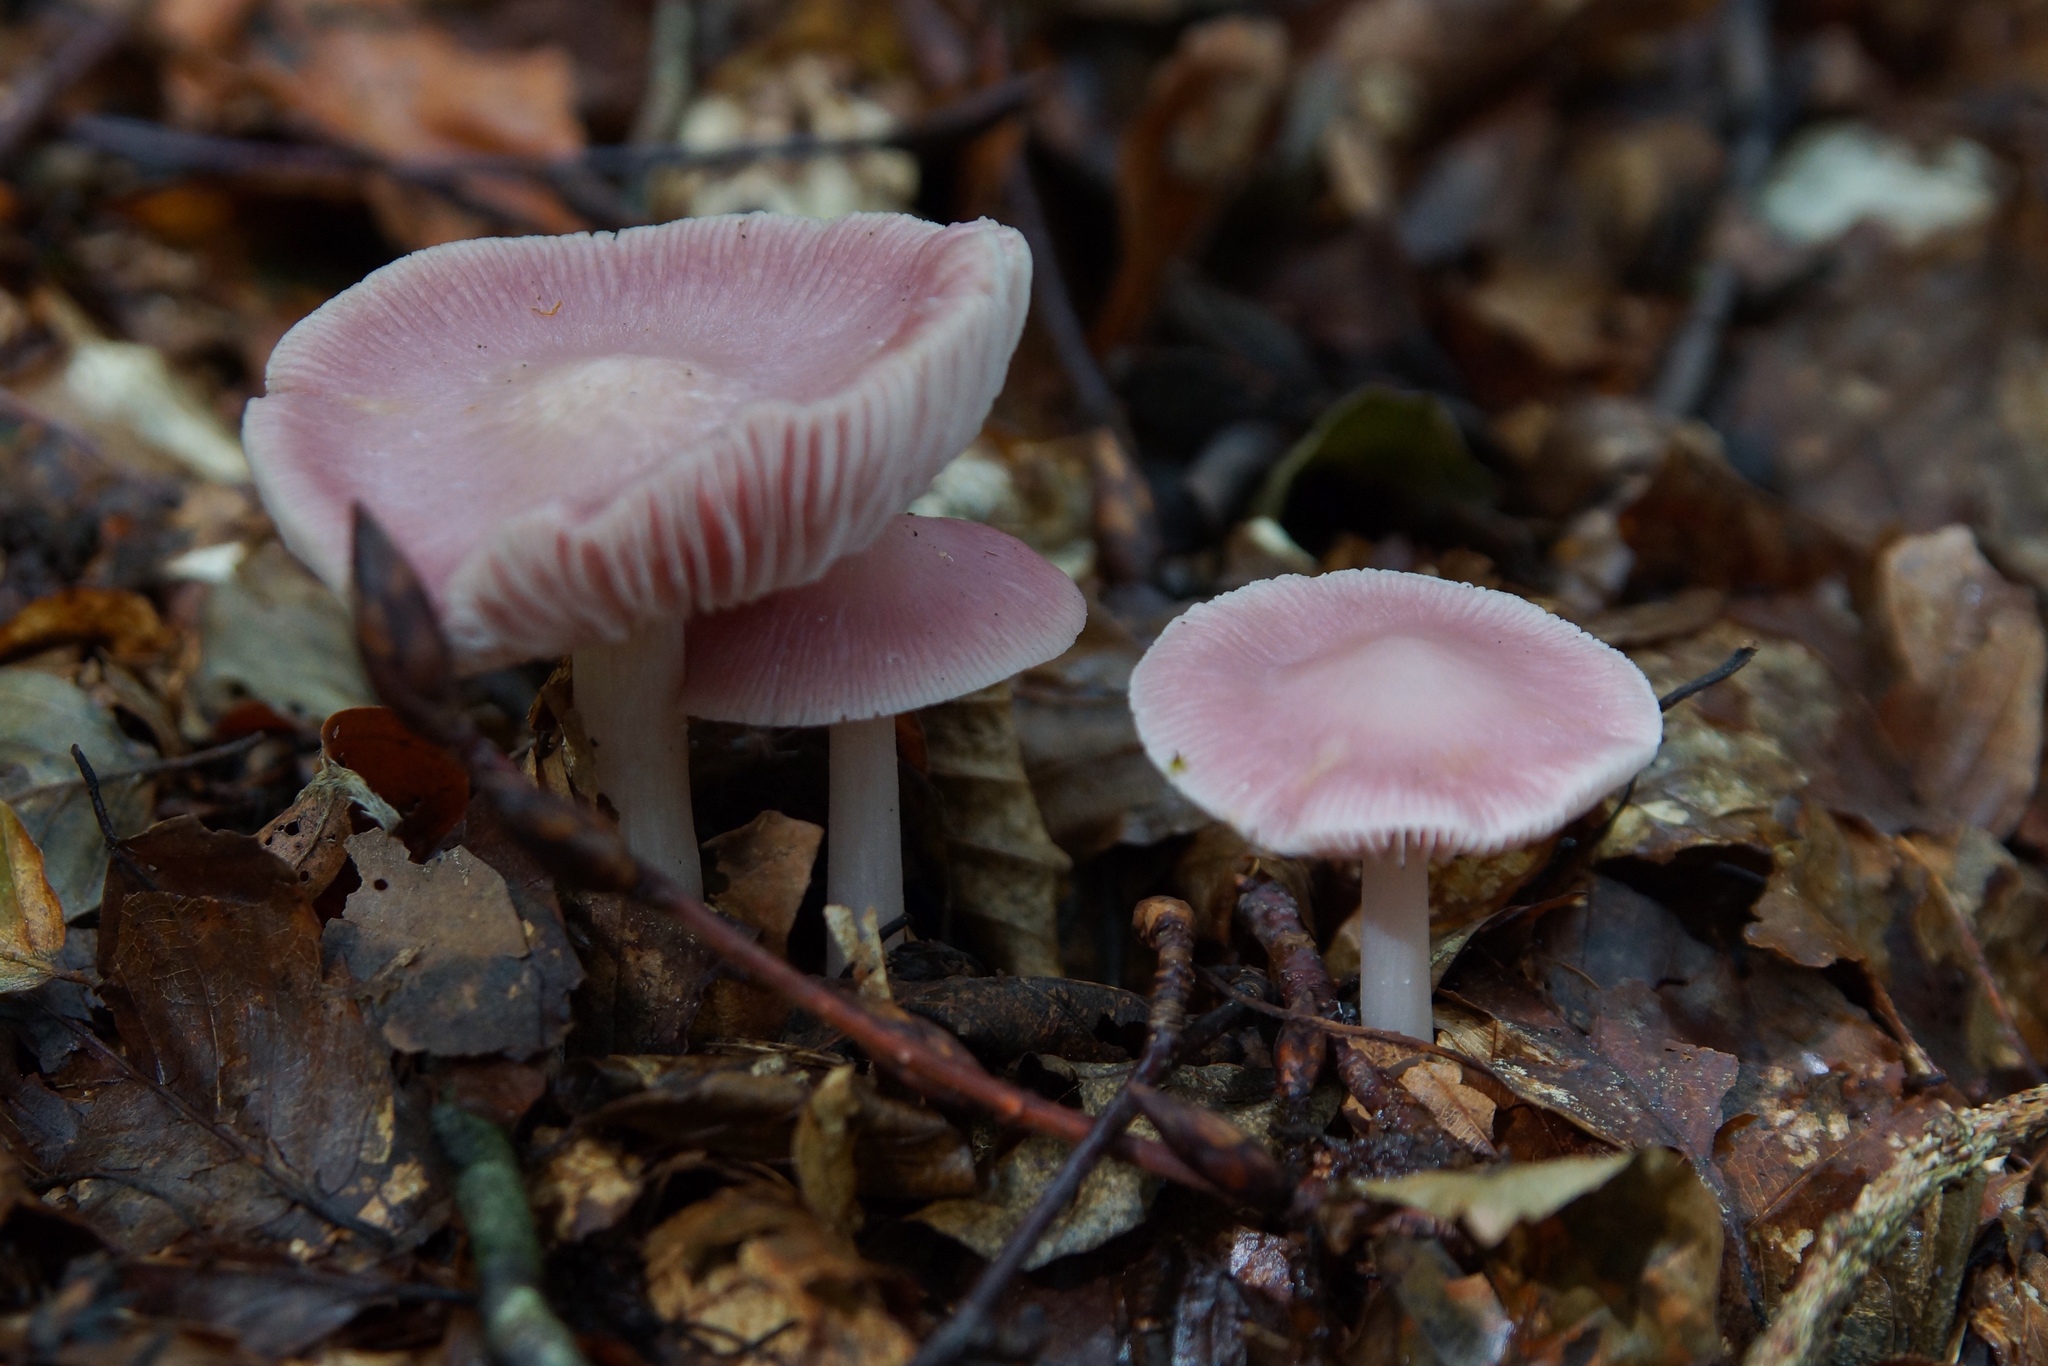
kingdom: Fungi
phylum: Basidiomycota
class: Agaricomycetes
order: Agaricales
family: Mycenaceae
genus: Mycena
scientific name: Mycena rosea
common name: Rosy bonnet
